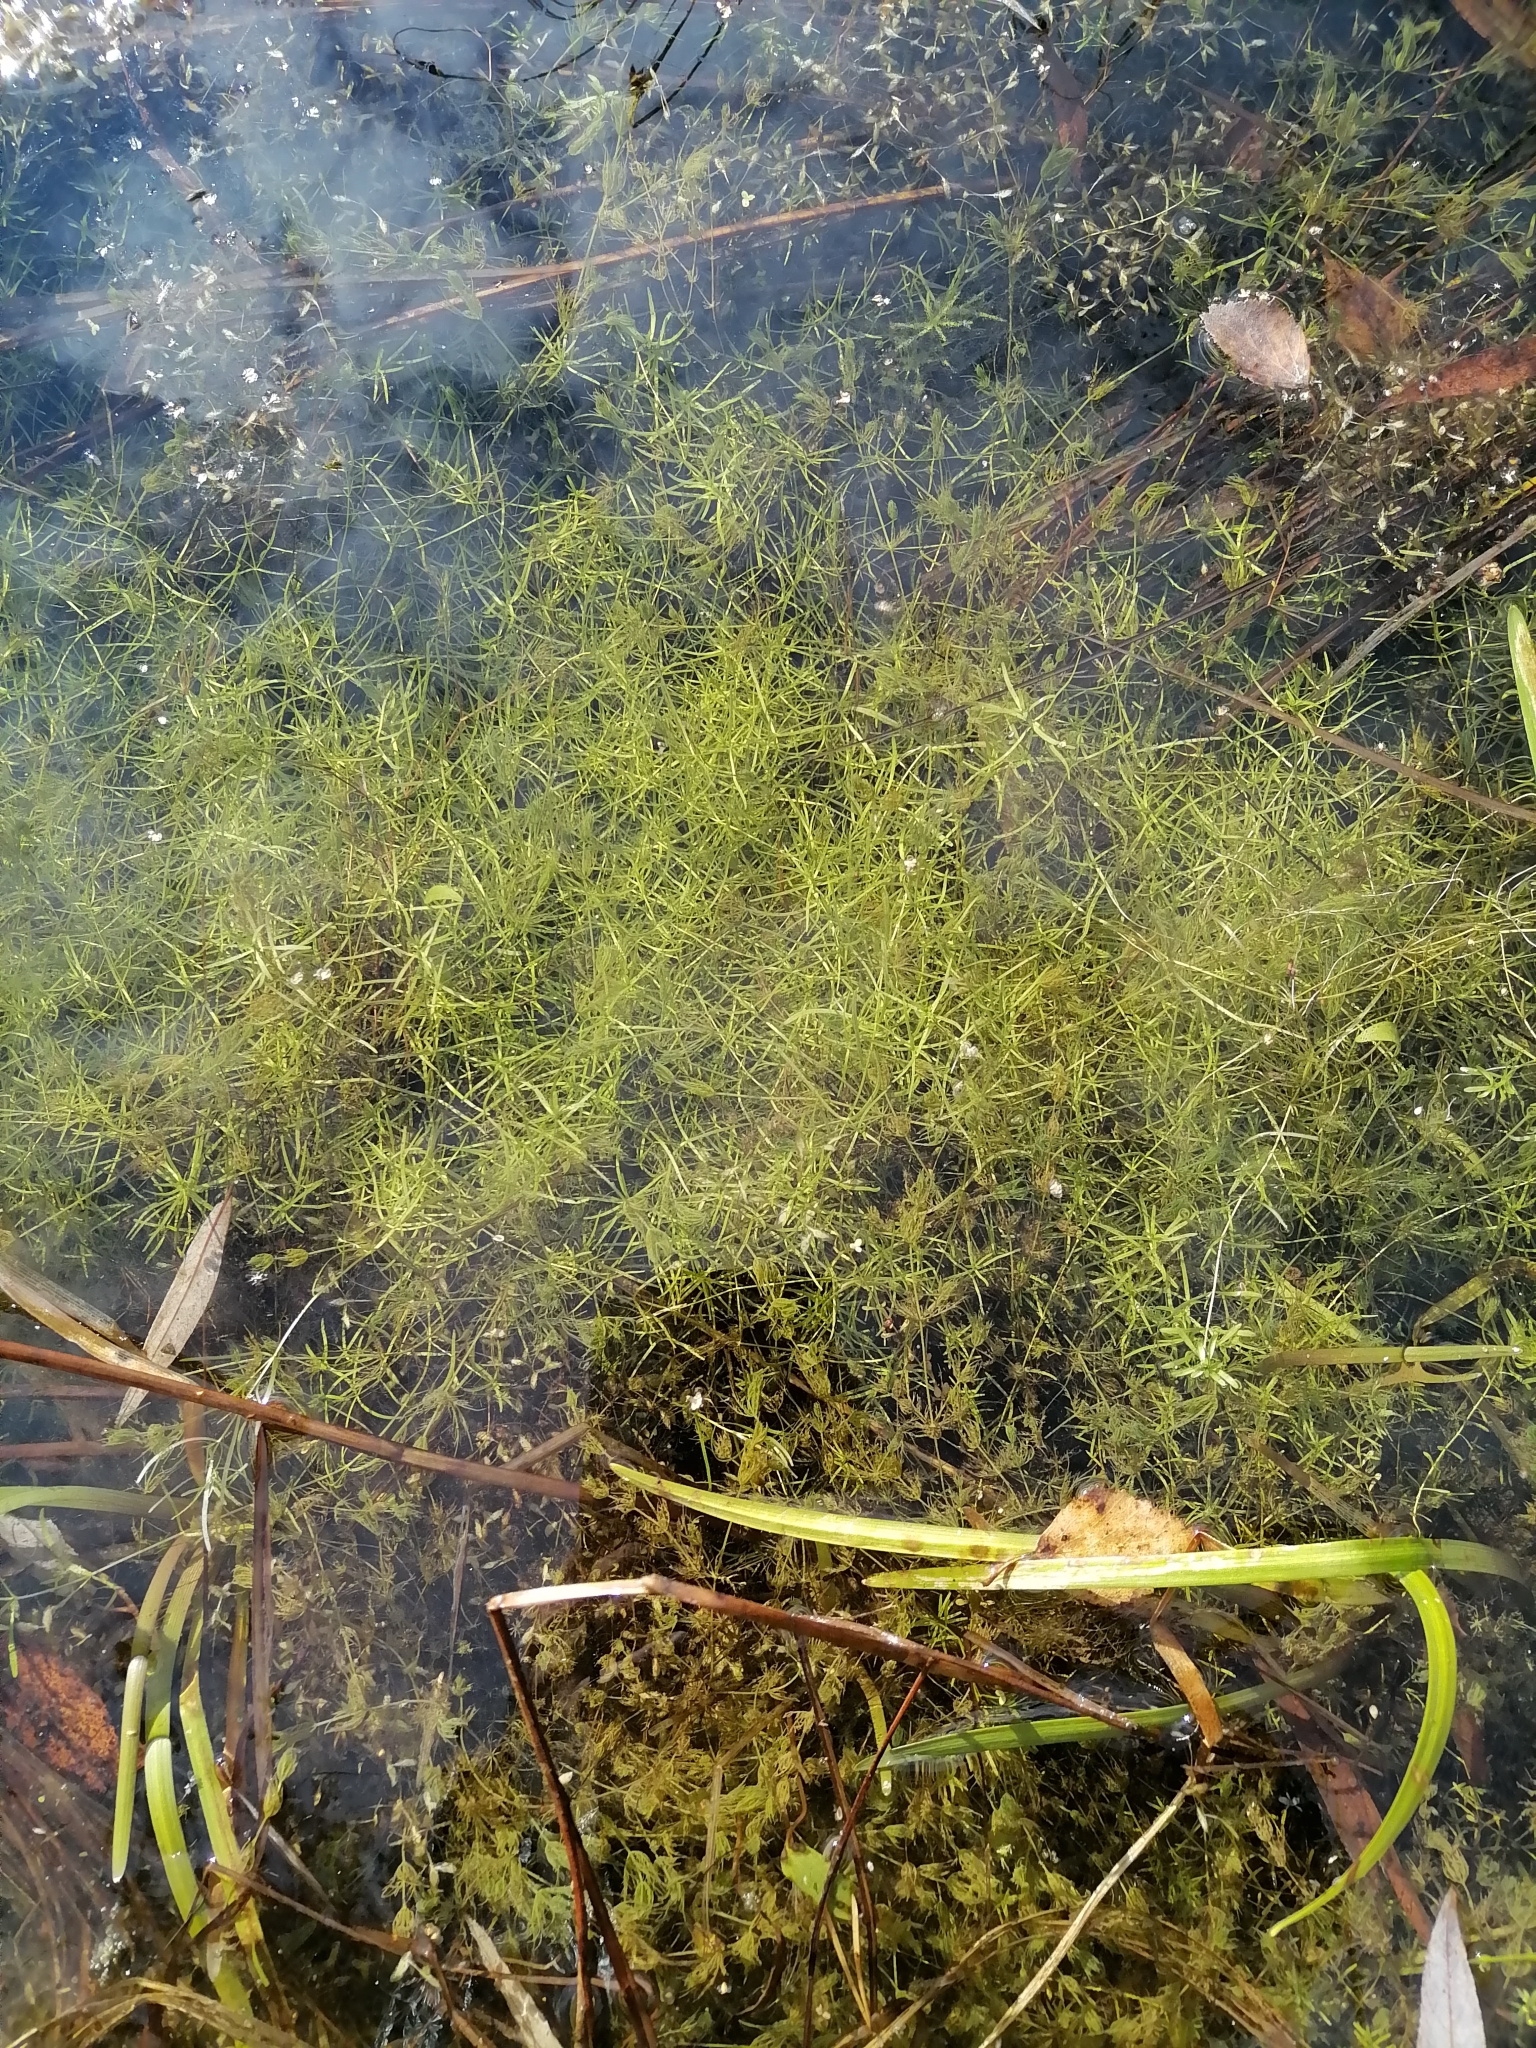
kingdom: Plantae
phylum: Tracheophyta
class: Magnoliopsida
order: Lamiales
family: Plantaginaceae
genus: Callitriche
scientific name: Callitriche
